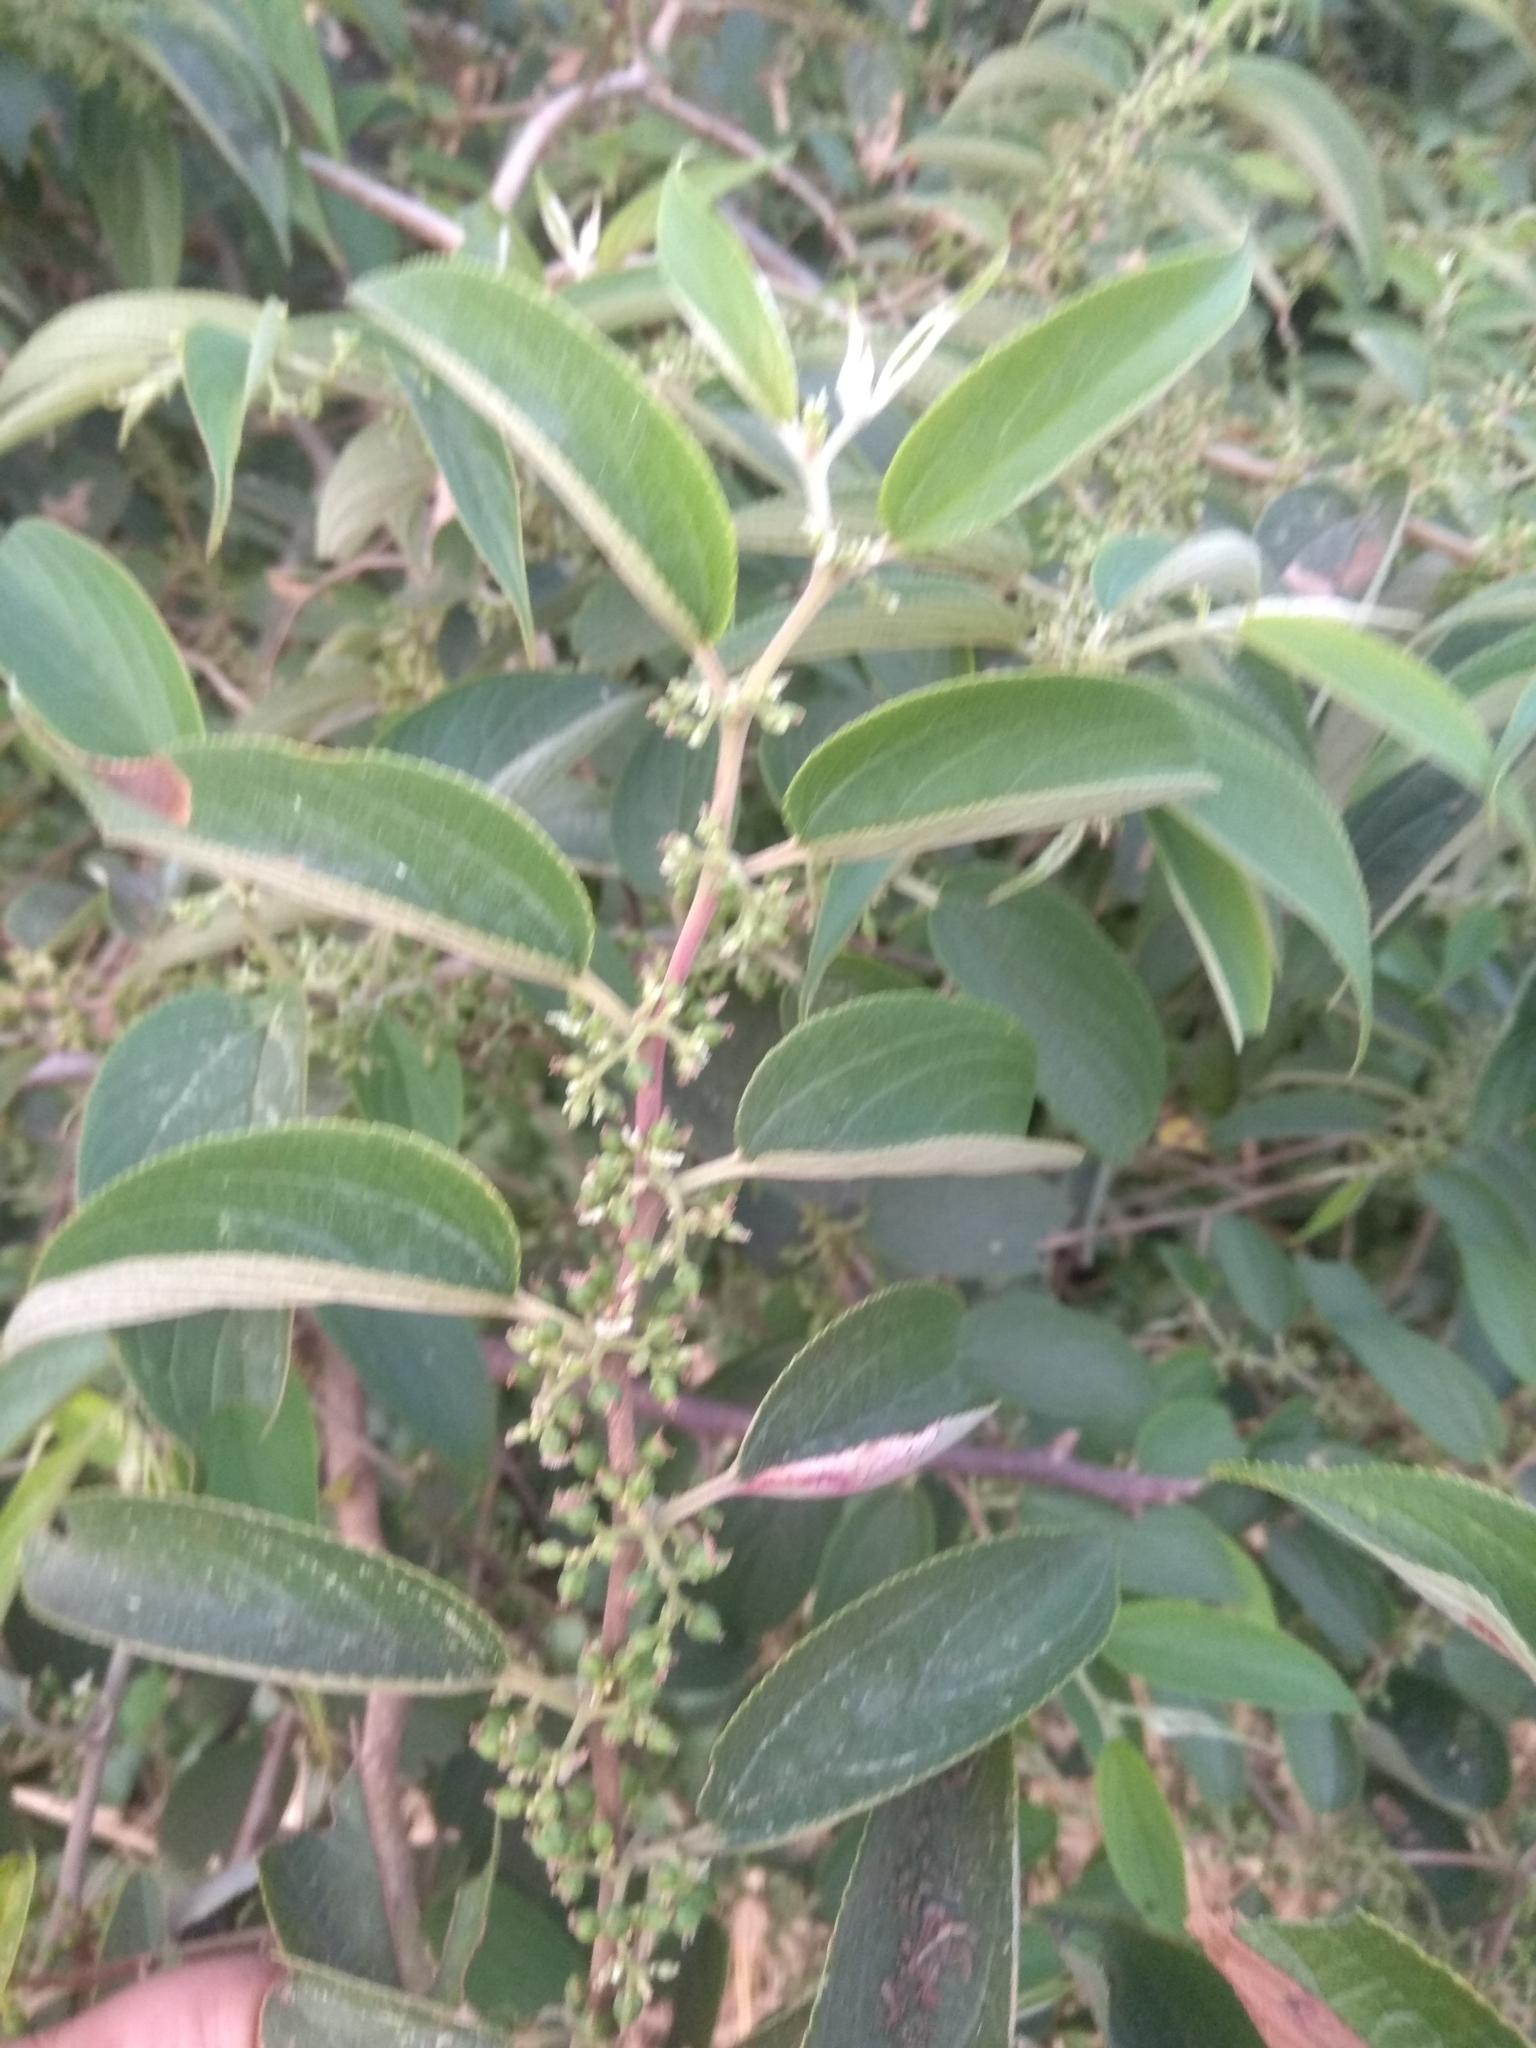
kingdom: Plantae
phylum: Tracheophyta
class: Magnoliopsida
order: Rosales
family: Cannabaceae
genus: Trema
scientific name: Trema orientale
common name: Indian charcoal tree
